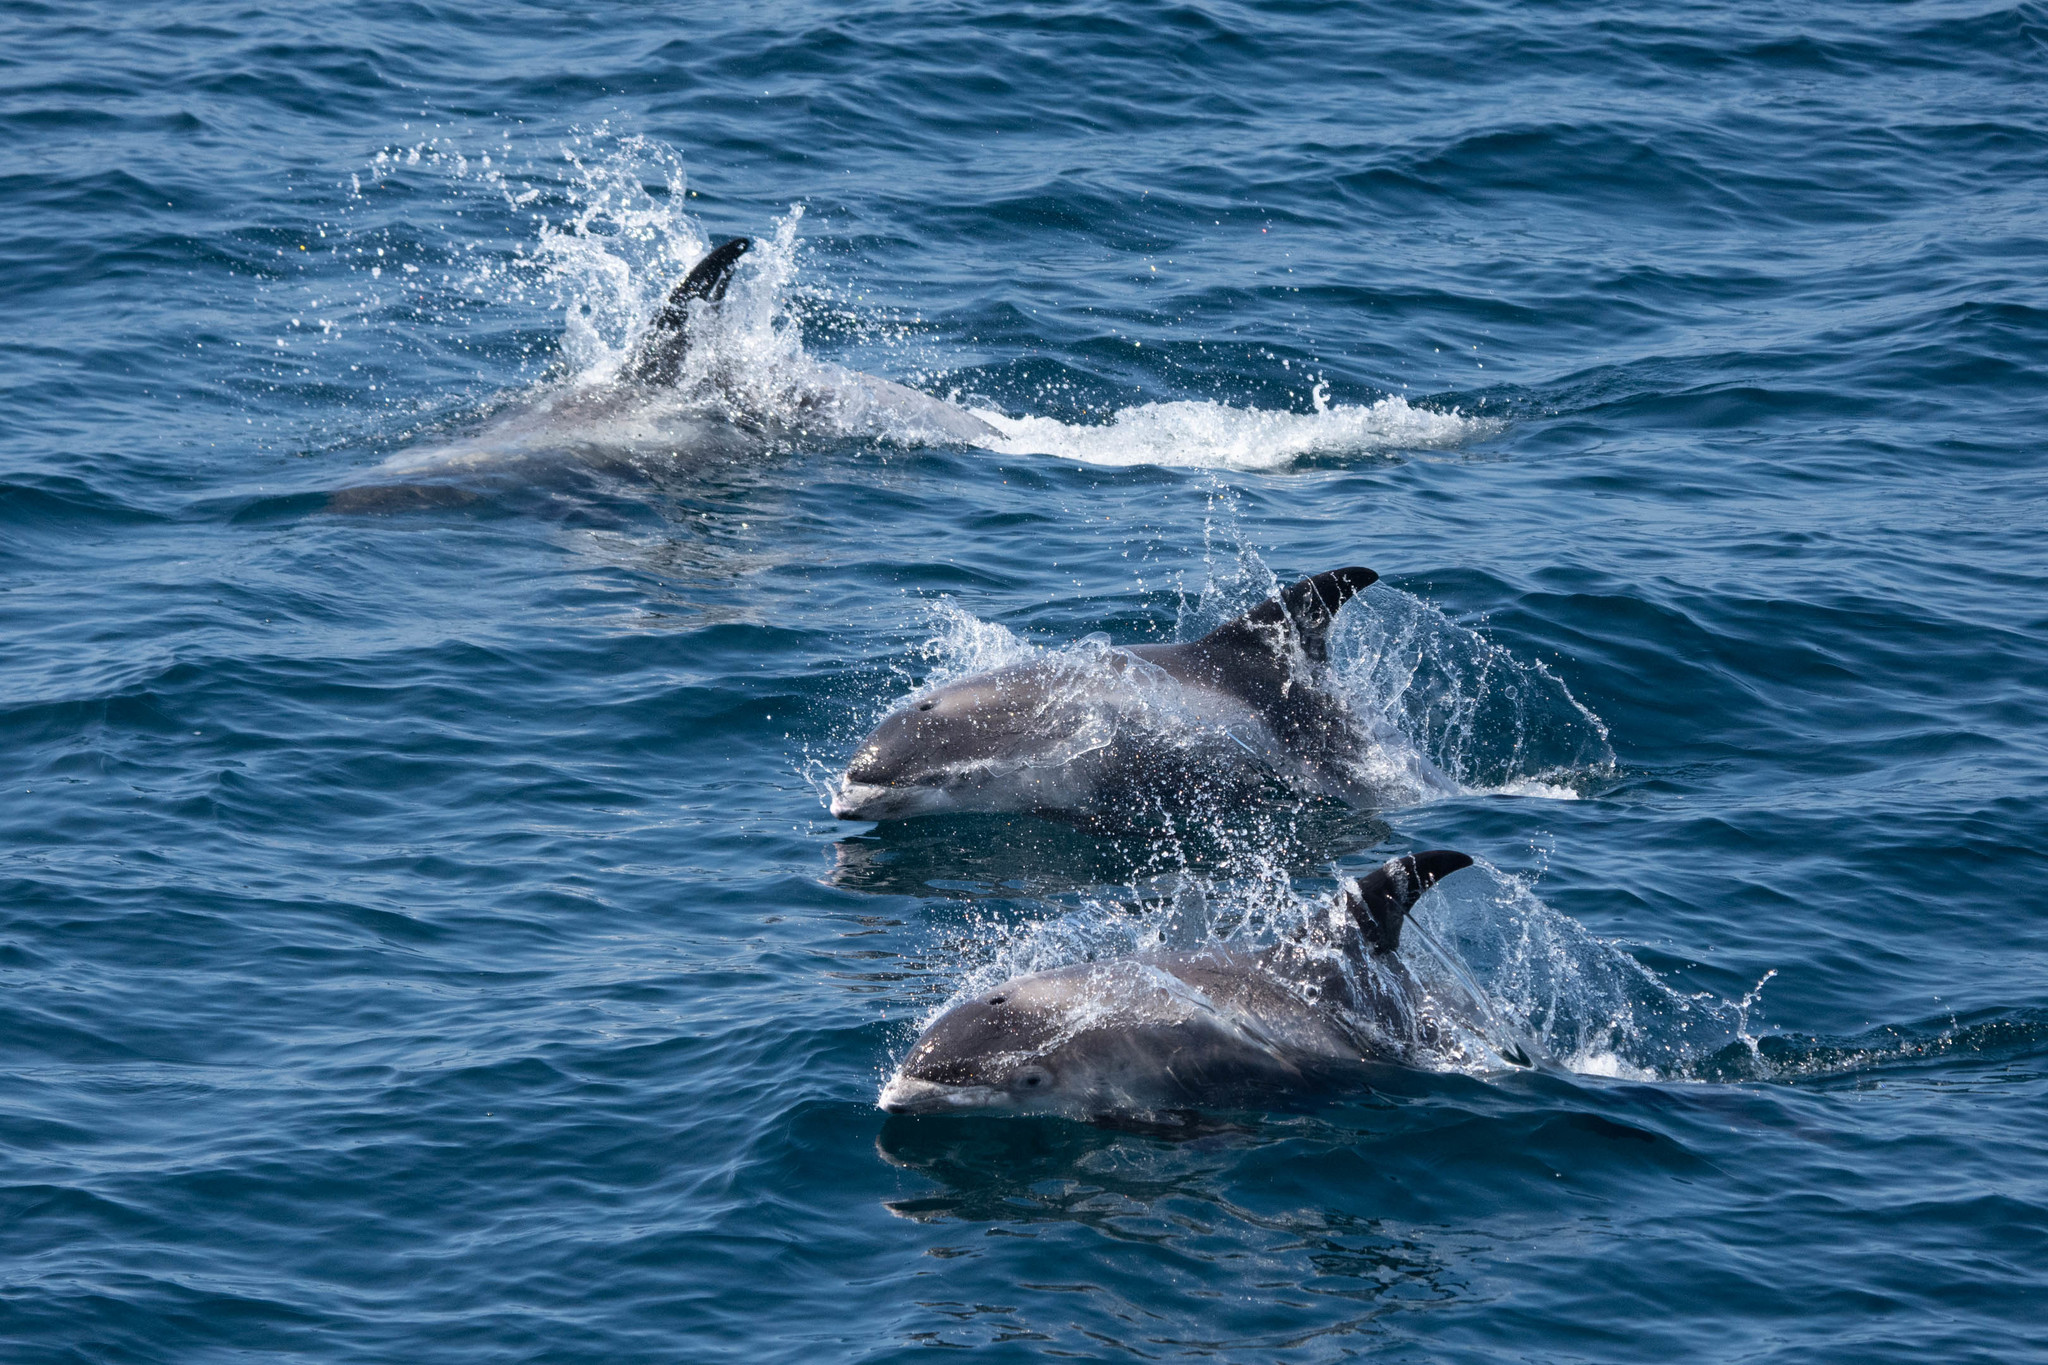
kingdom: Animalia
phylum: Chordata
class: Mammalia
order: Cetacea
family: Delphinidae
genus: Lagenorhynchus
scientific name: Lagenorhynchus albirostris
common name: White-beaked dolphin
